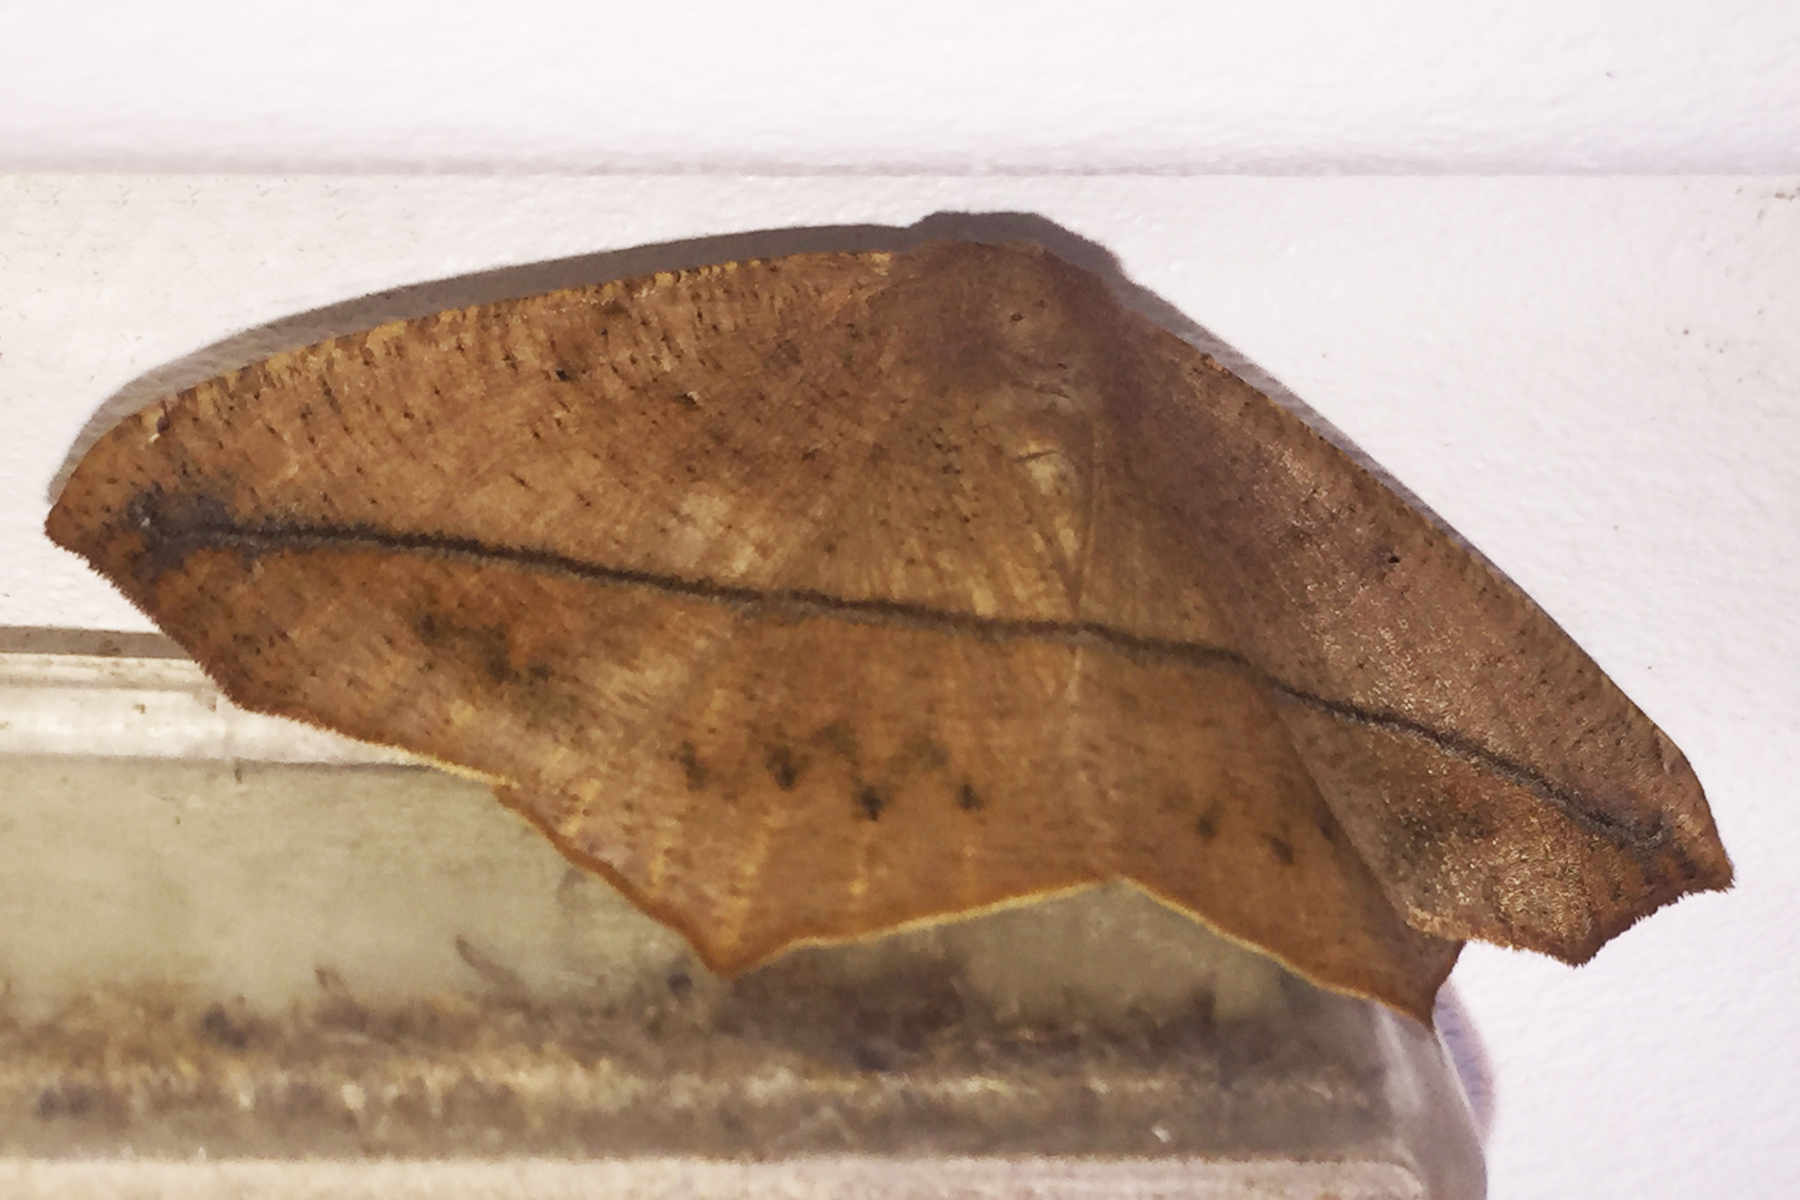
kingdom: Animalia
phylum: Arthropoda
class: Insecta
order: Lepidoptera
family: Geometridae
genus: Prochoerodes
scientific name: Prochoerodes lineola
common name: Large maple spanworm
